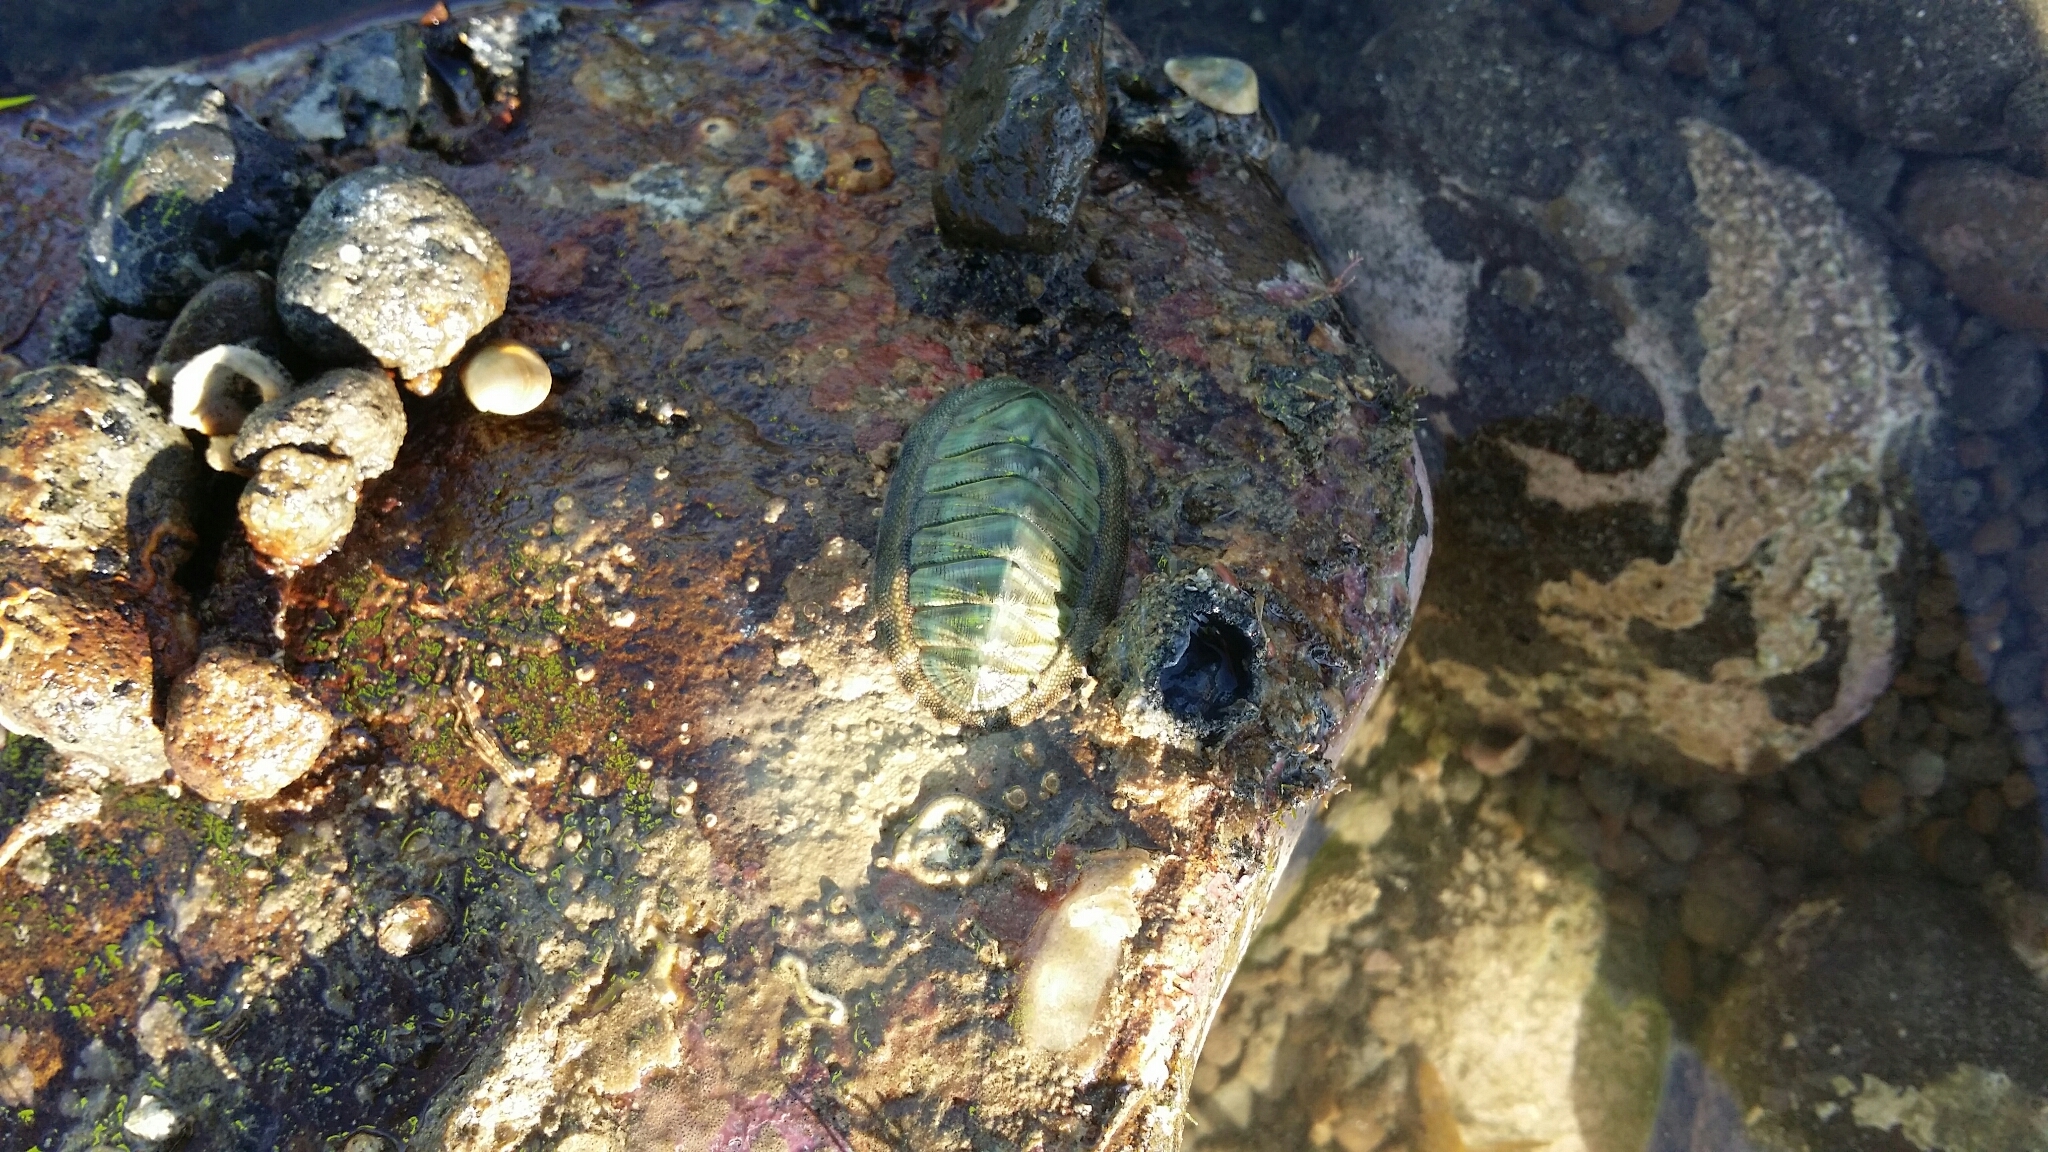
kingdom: Animalia
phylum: Mollusca
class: Polyplacophora
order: Chitonida
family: Chitonidae
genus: Rhyssoplax
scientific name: Rhyssoplax aerea
